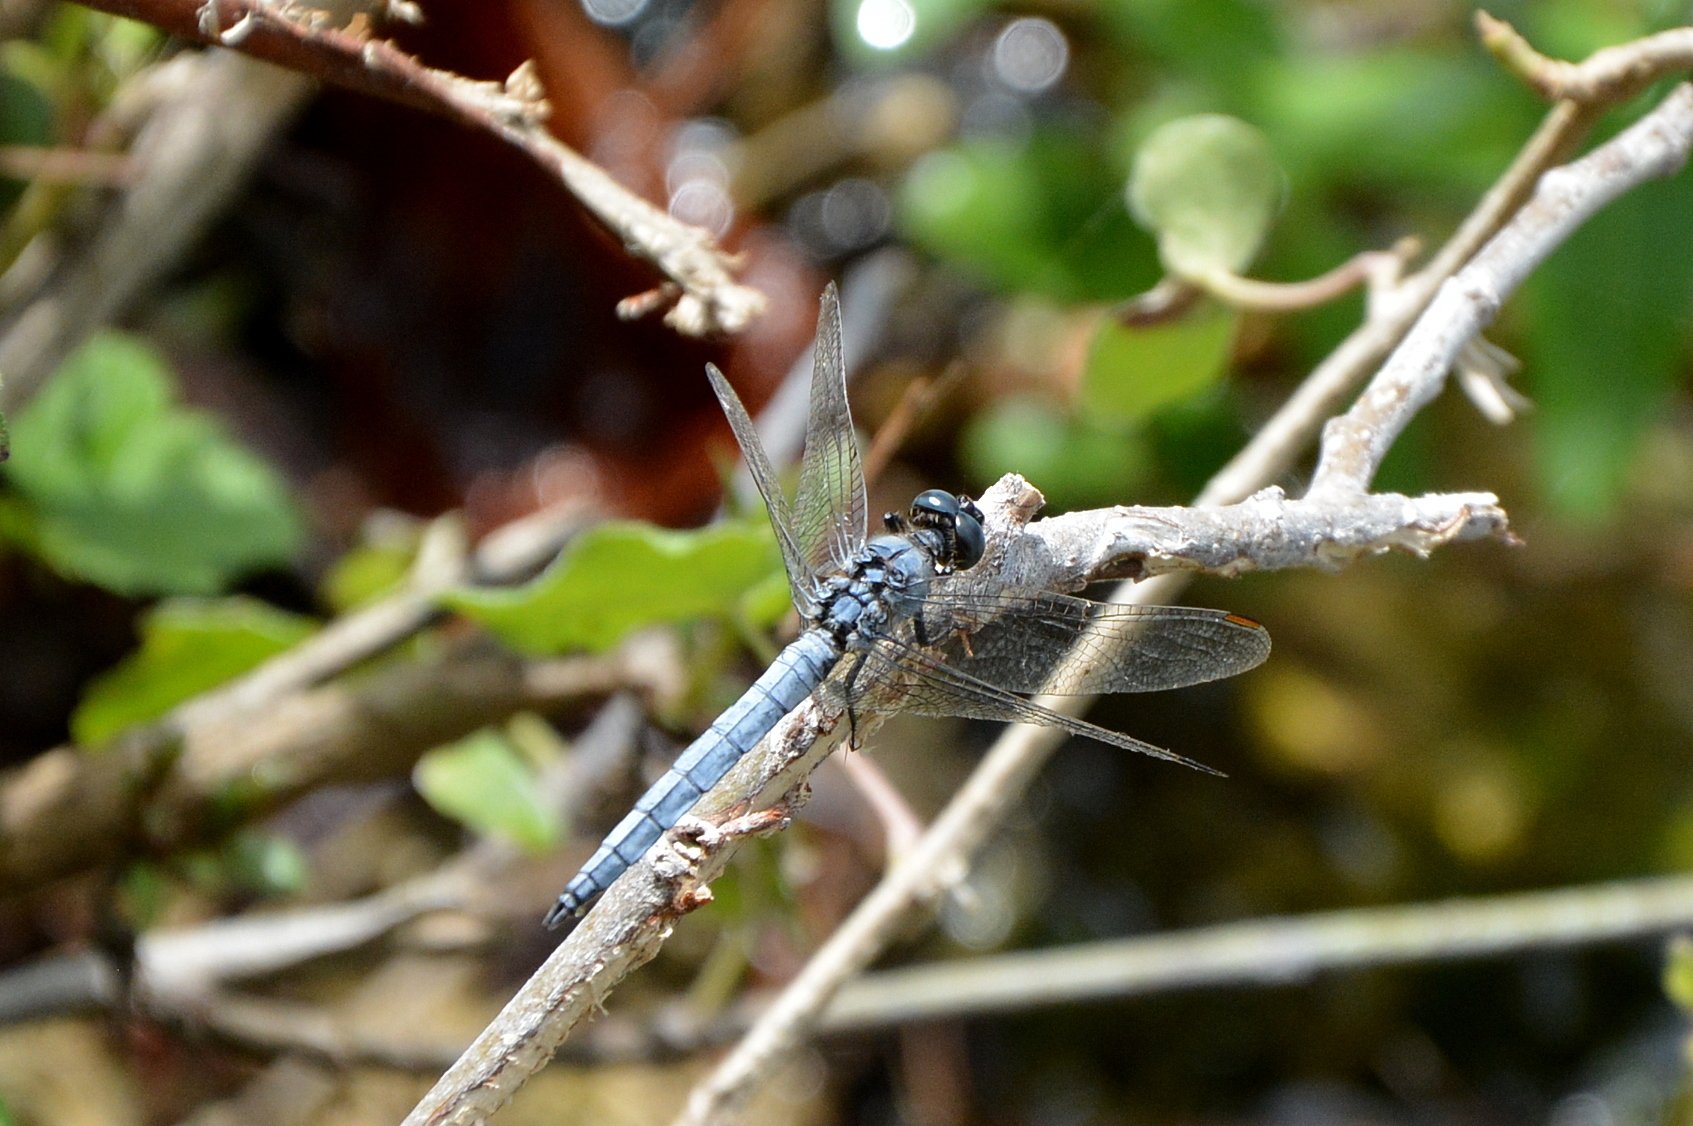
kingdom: Animalia
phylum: Arthropoda
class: Insecta
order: Odonata
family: Libellulidae
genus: Orthetrum
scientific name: Orthetrum coerulescens
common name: Keeled skimmer
